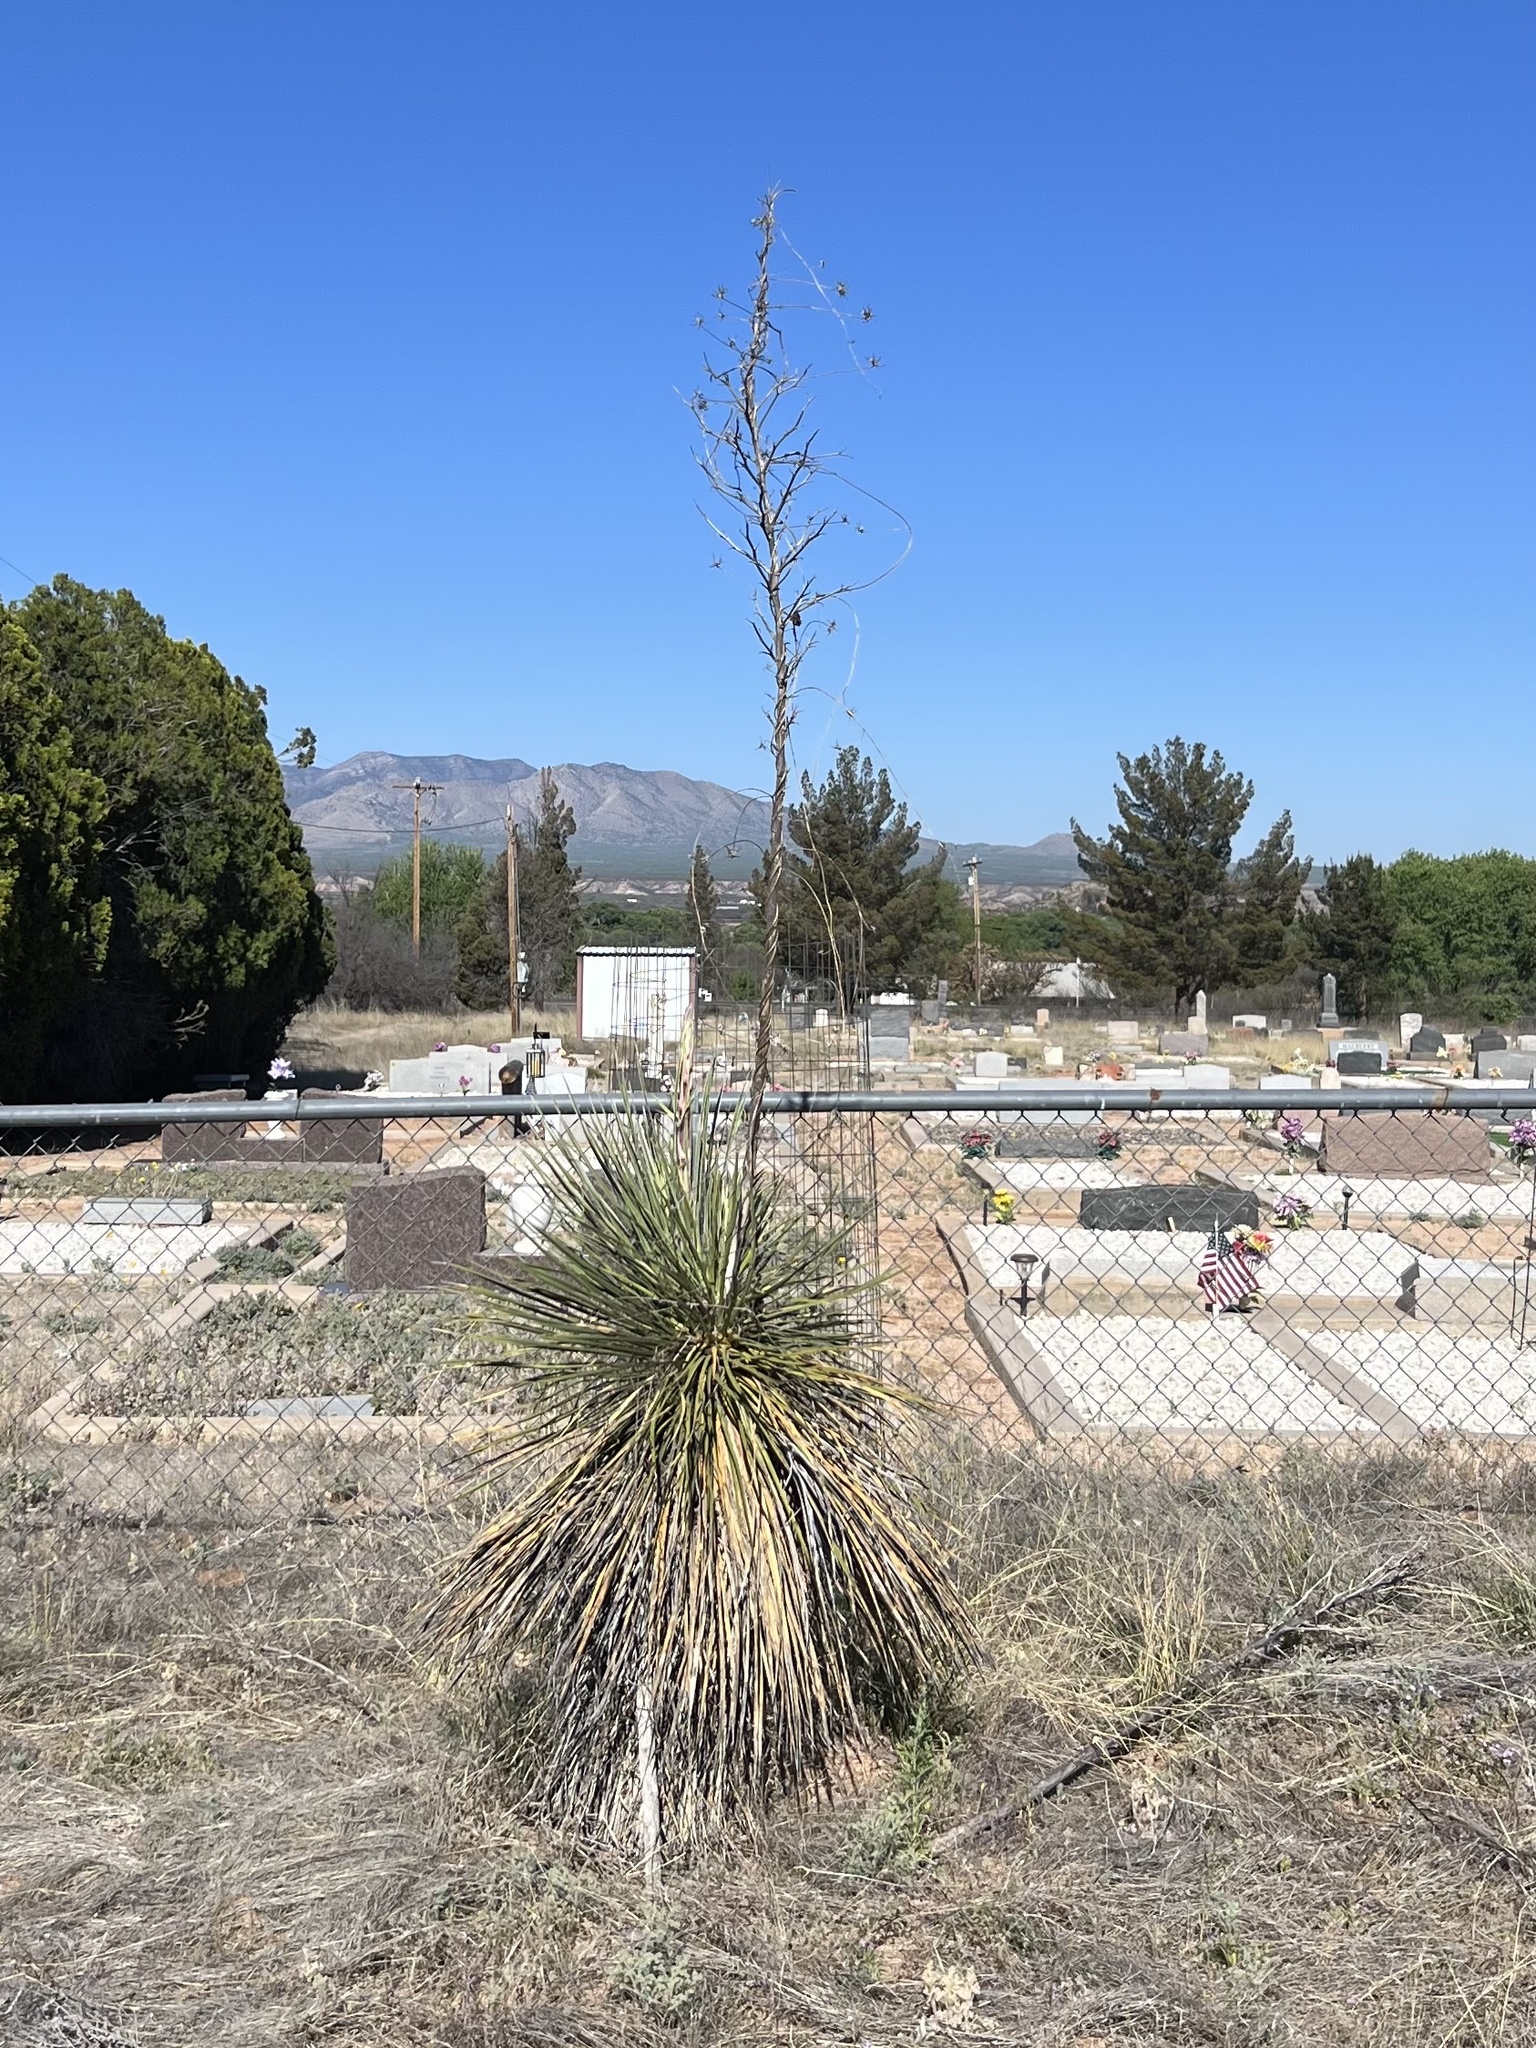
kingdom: Plantae
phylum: Tracheophyta
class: Liliopsida
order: Asparagales
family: Asparagaceae
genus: Yucca
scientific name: Yucca elata
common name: Palmella
